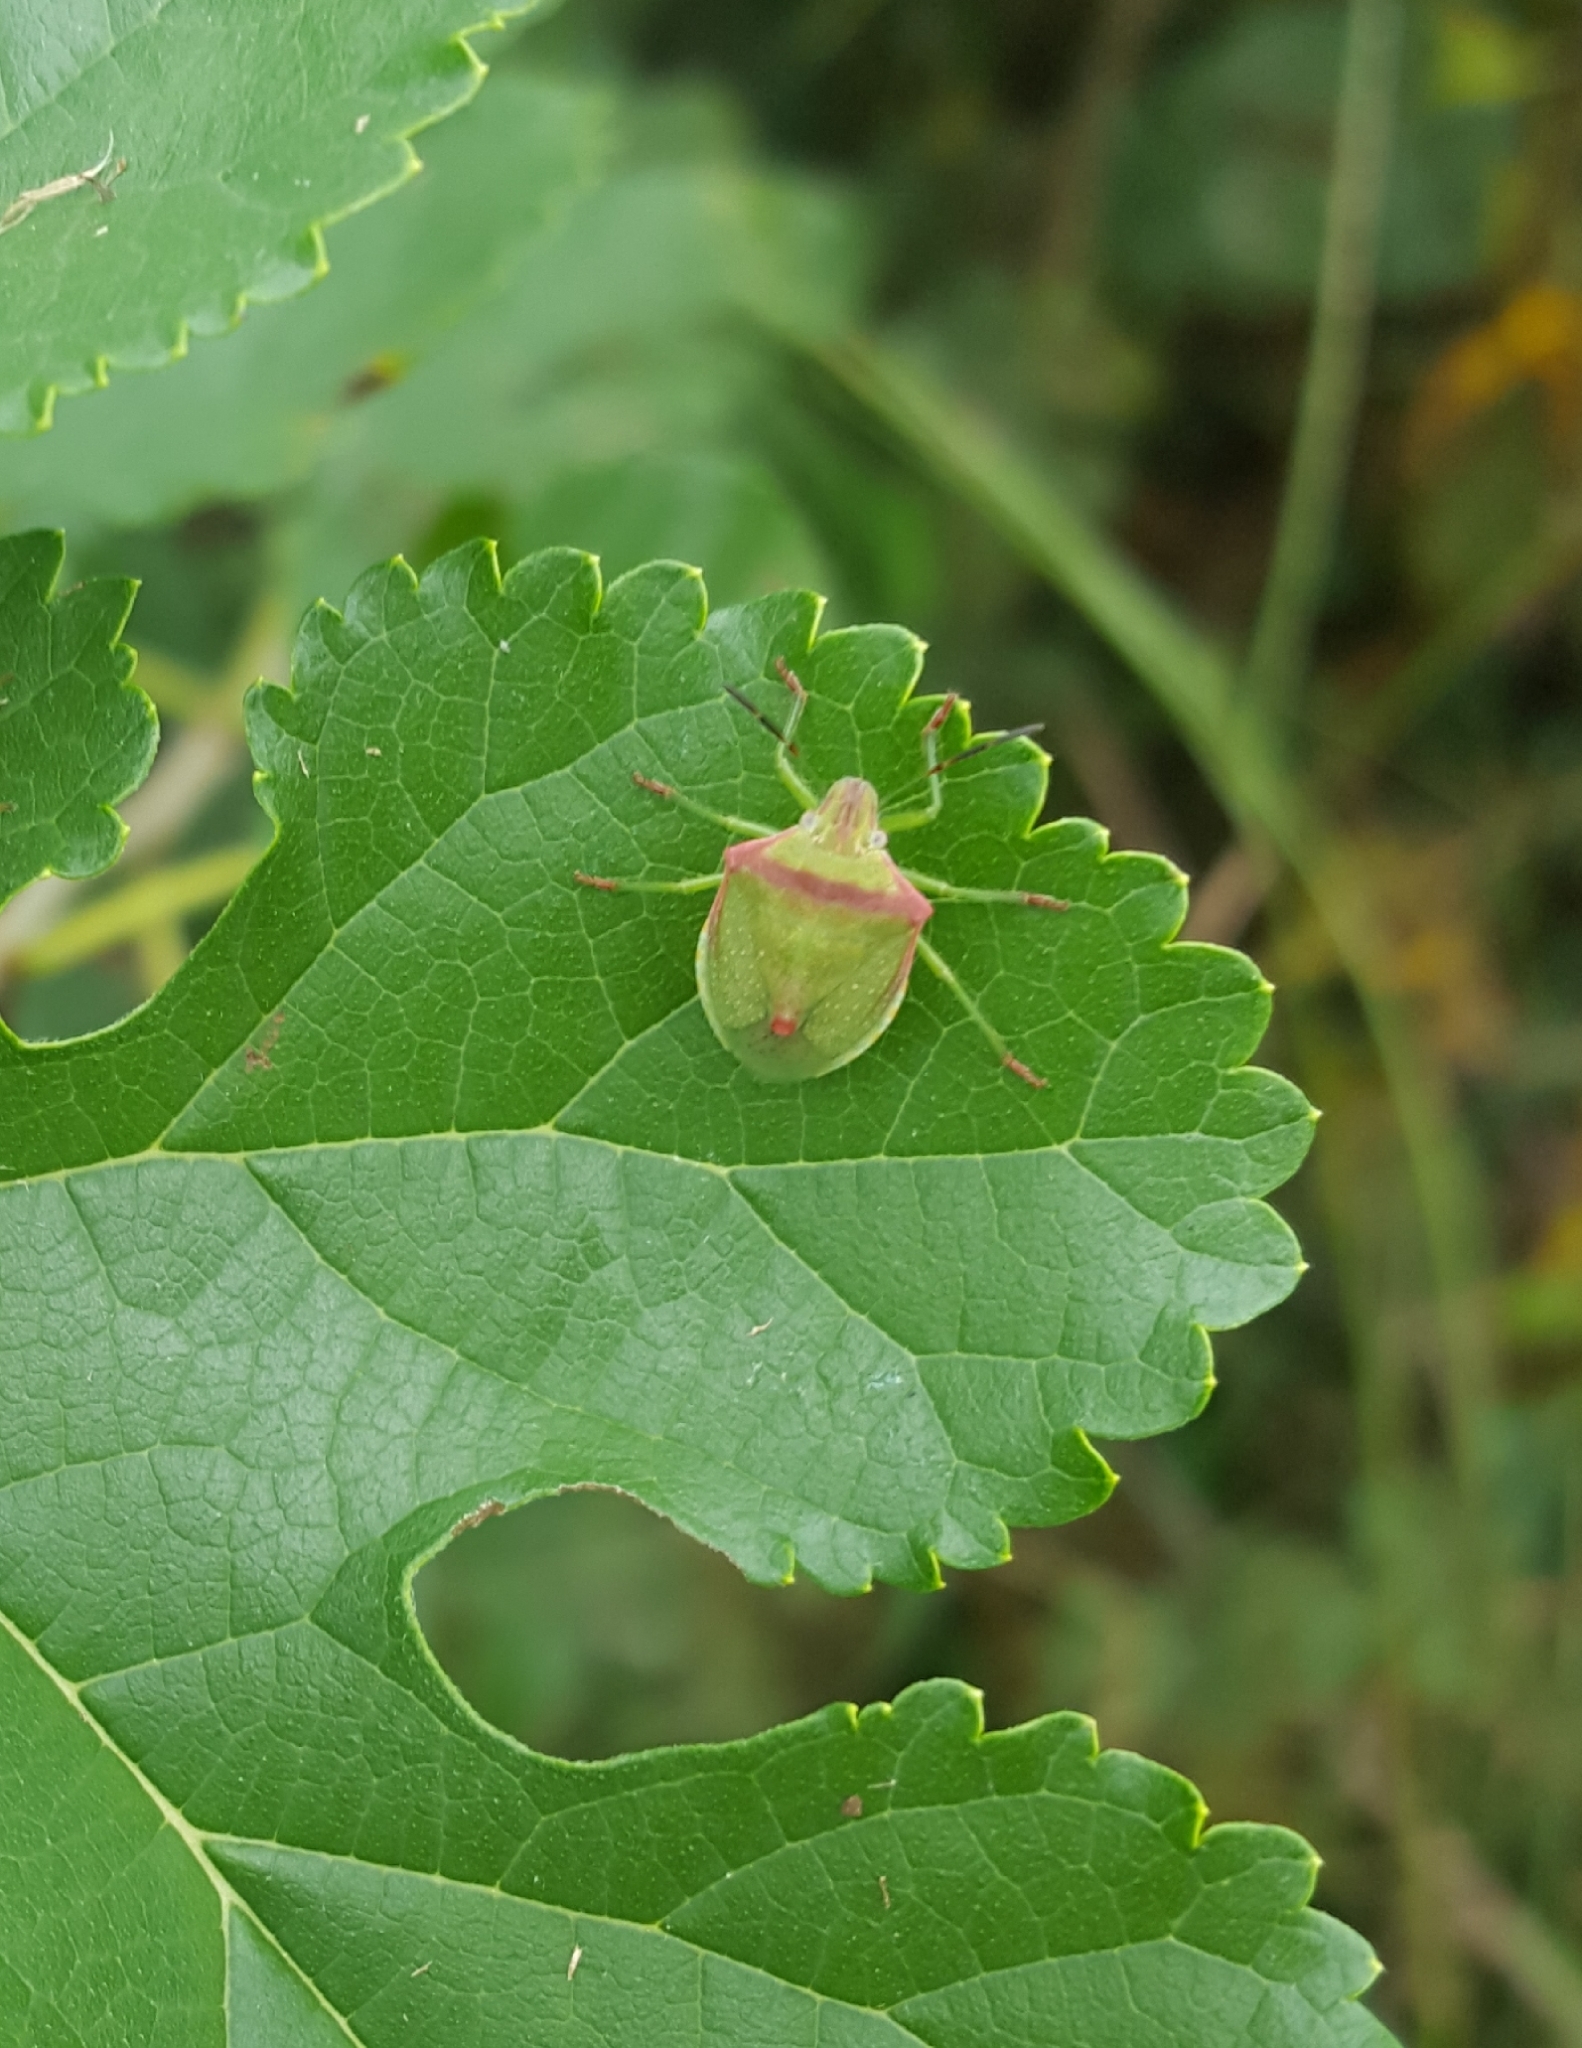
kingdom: Animalia
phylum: Arthropoda
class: Insecta
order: Hemiptera
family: Pentatomidae
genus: Thyanta
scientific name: Thyanta custator
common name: Stink bug
